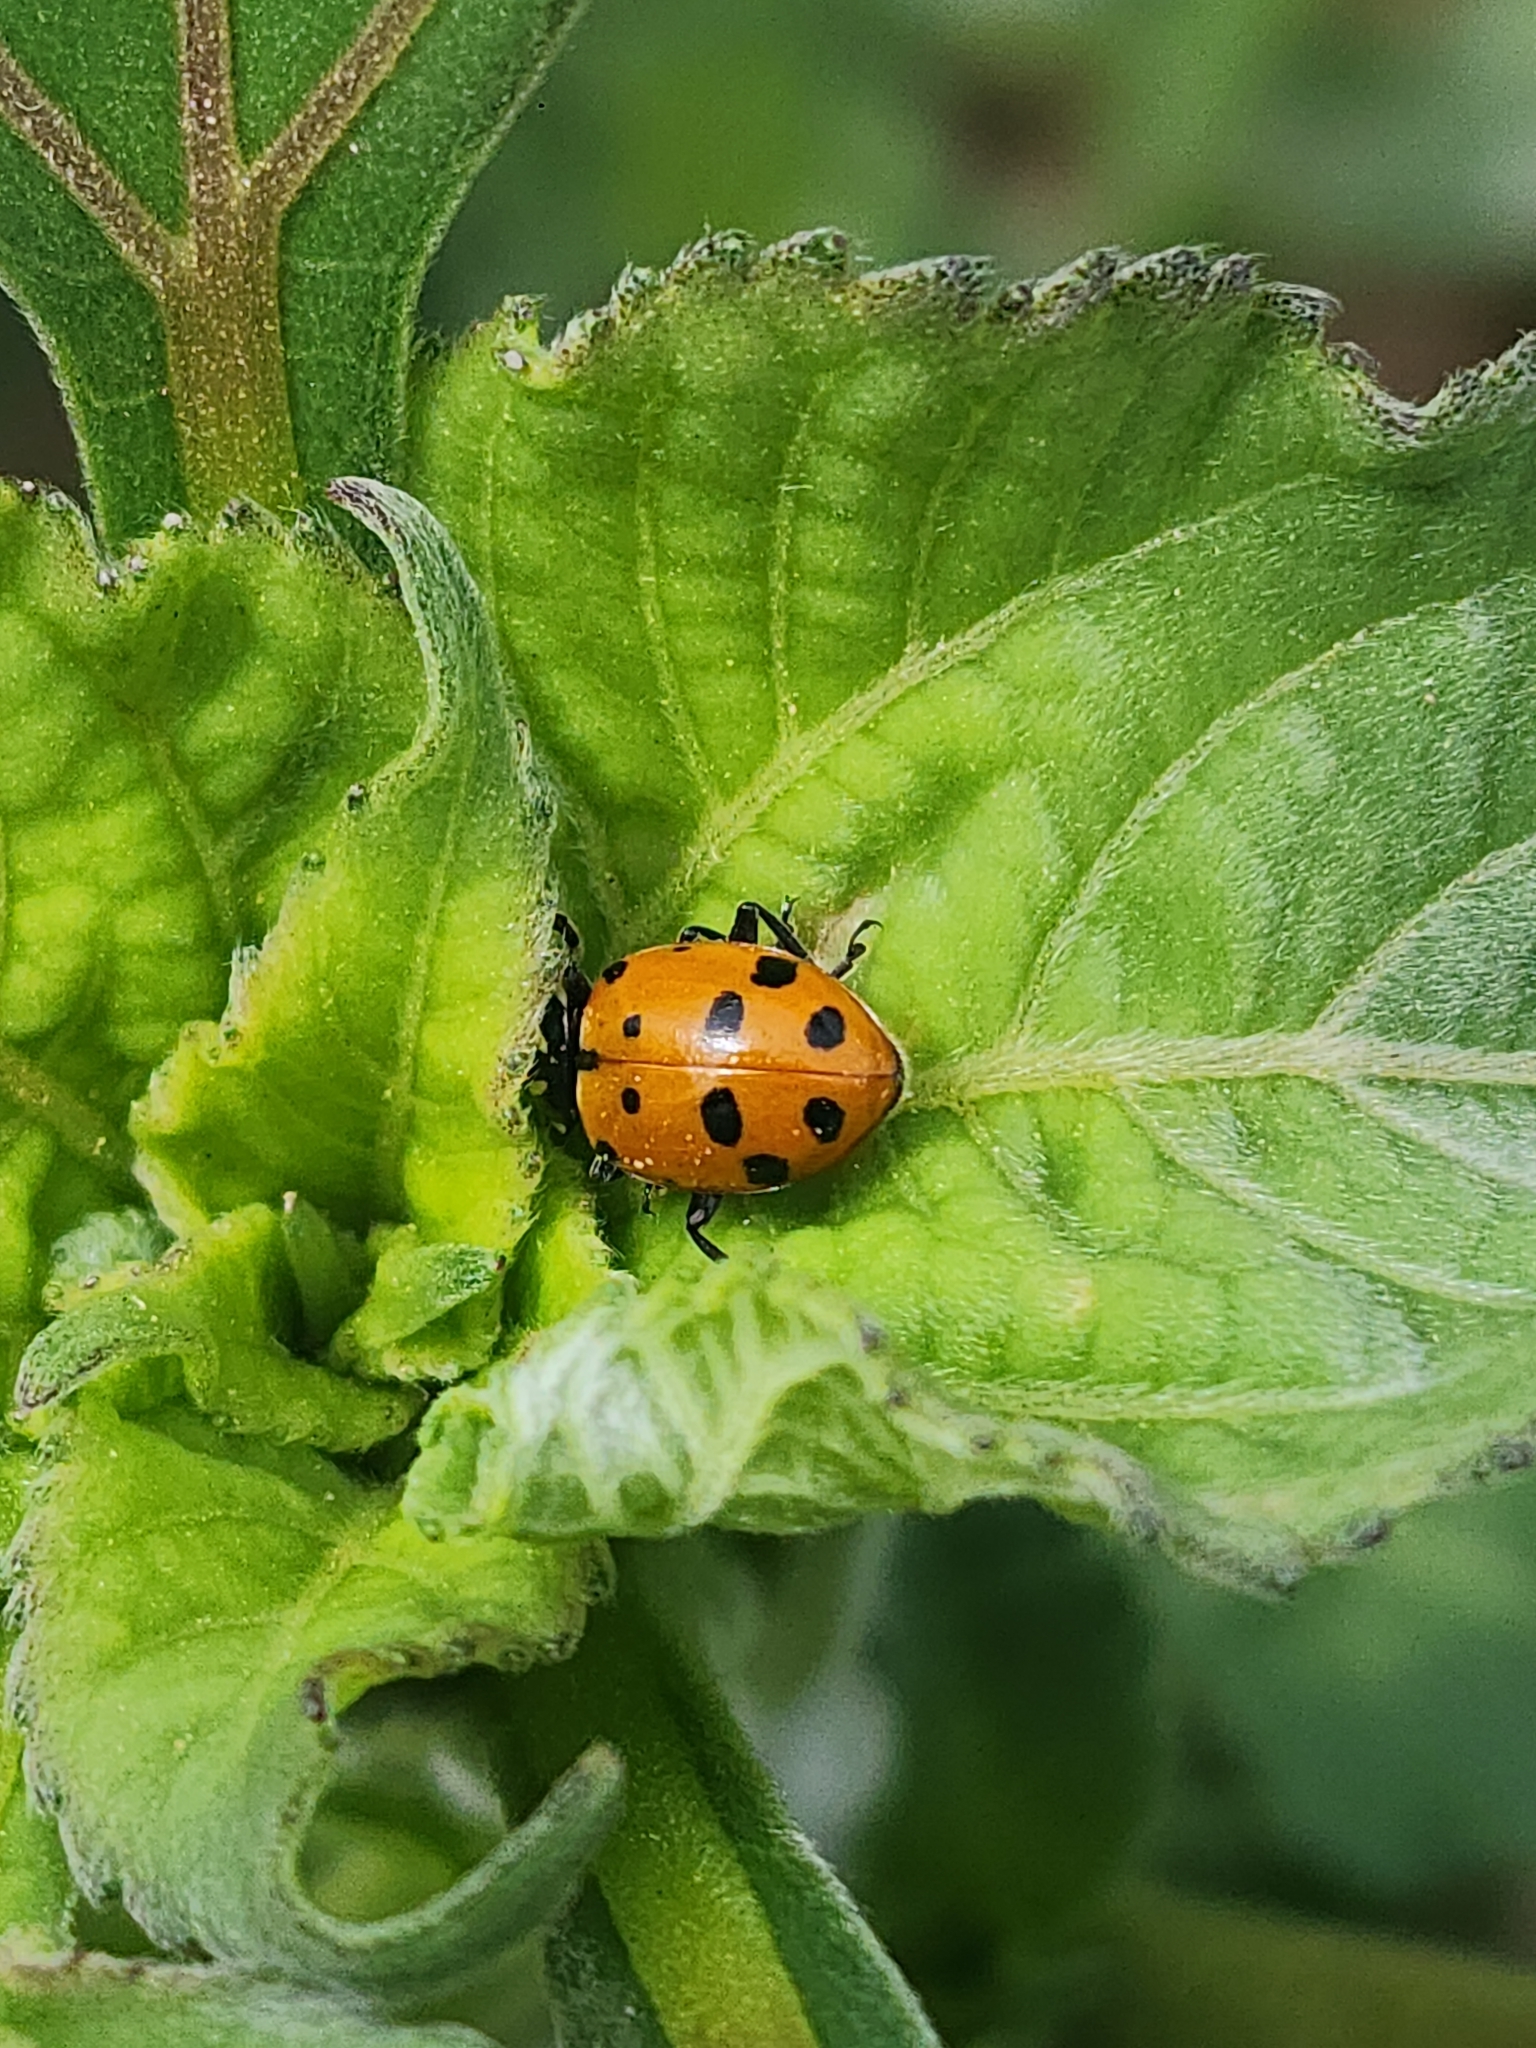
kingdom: Animalia
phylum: Arthropoda
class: Insecta
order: Coleoptera
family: Coccinellidae
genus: Hippodamia
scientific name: Hippodamia convergens
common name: Convergent lady beetle
